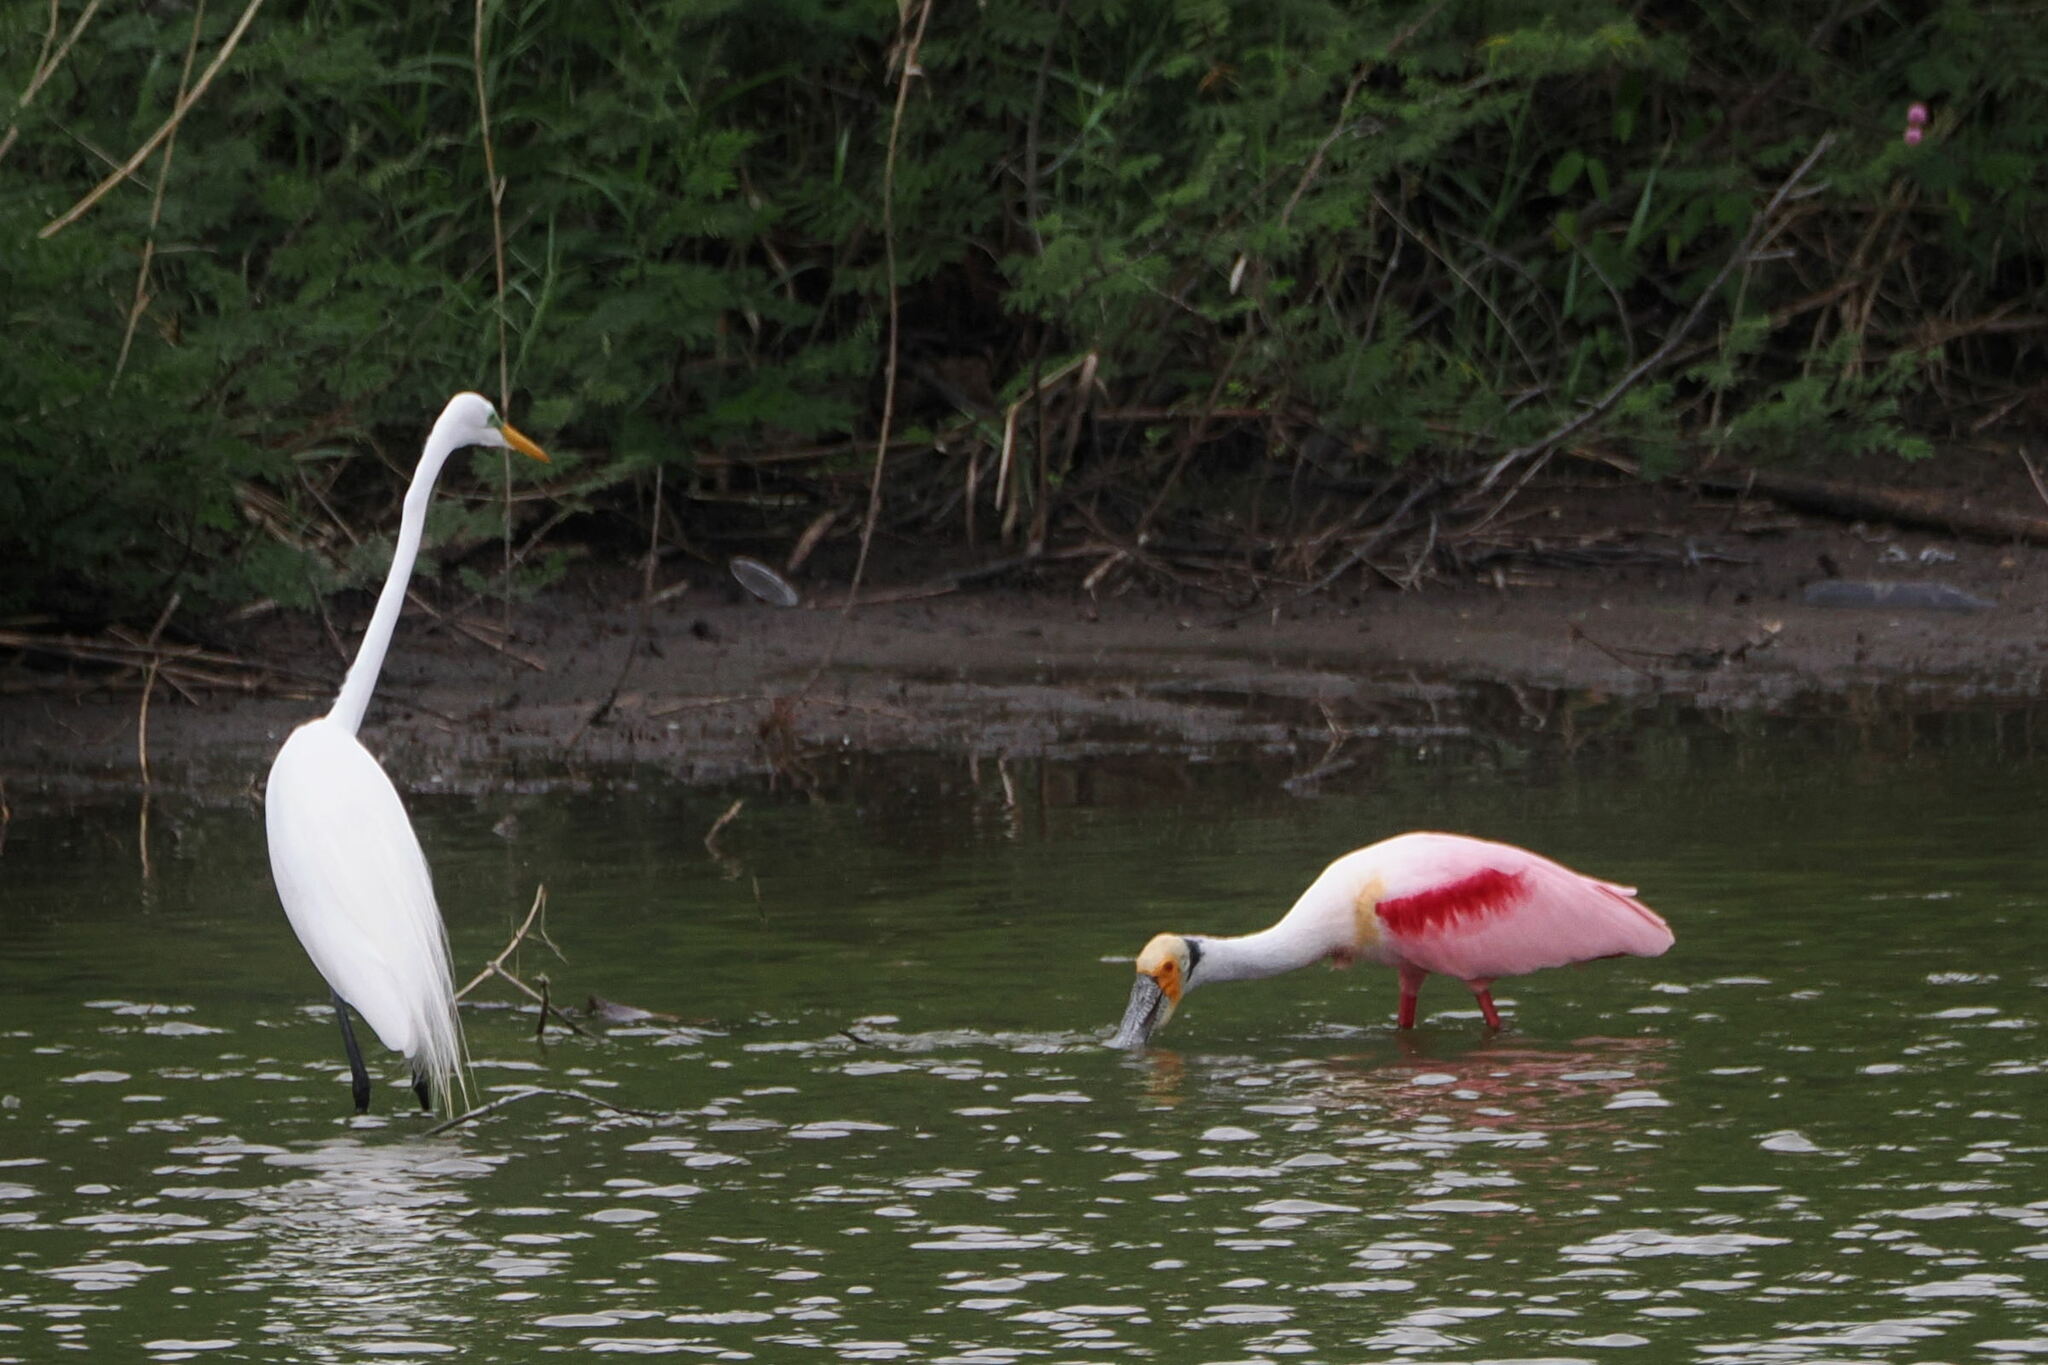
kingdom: Animalia
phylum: Chordata
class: Aves
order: Pelecaniformes
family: Threskiornithidae
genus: Platalea
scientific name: Platalea ajaja
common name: Roseate spoonbill
